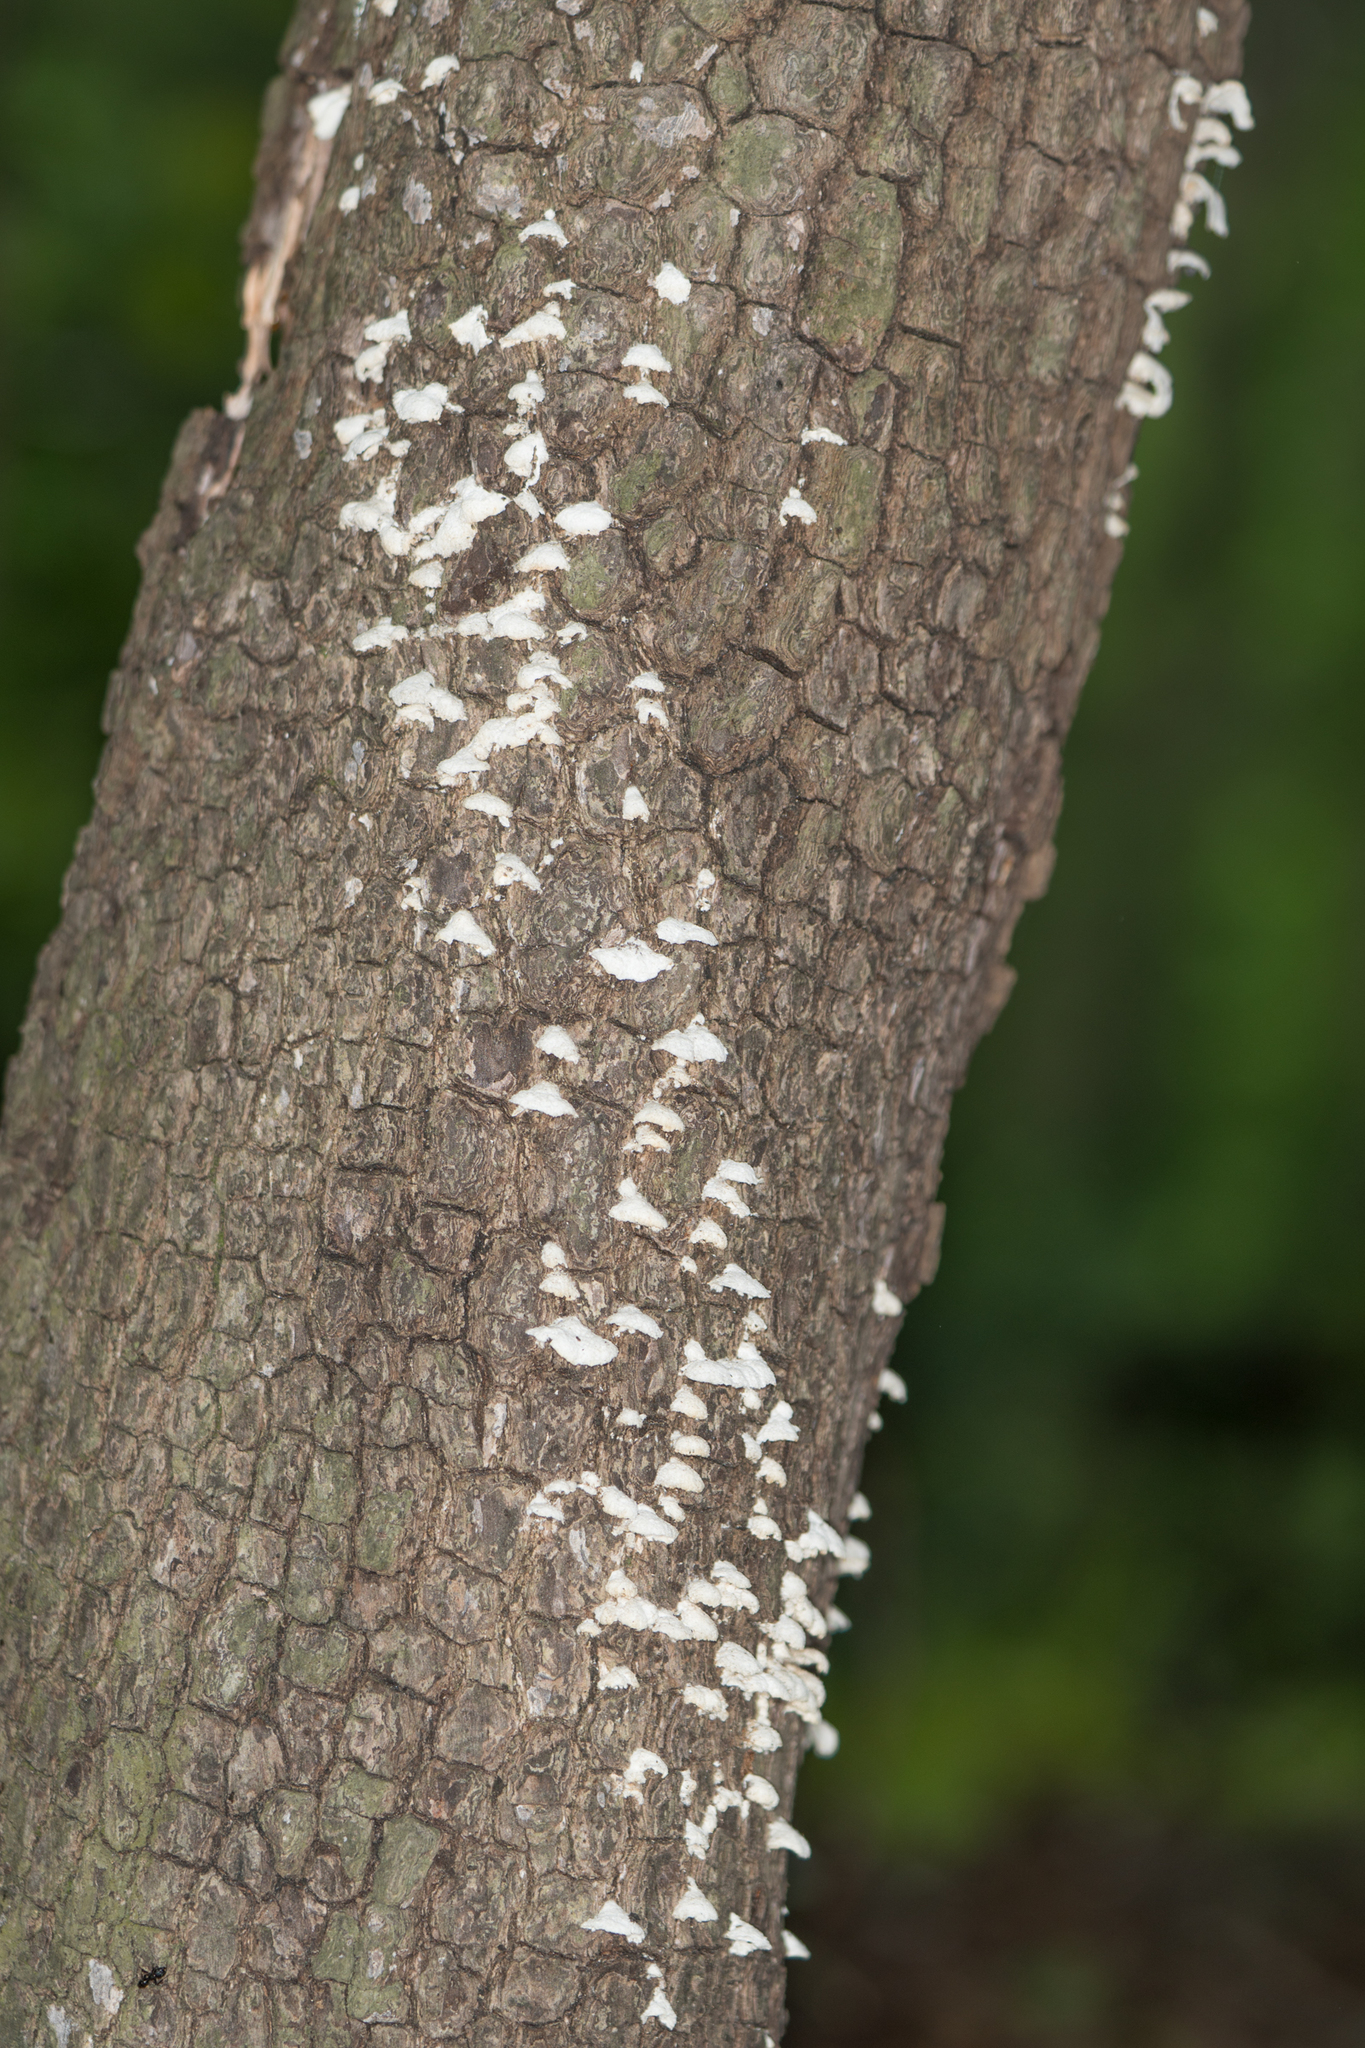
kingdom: Fungi
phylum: Basidiomycota
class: Agaricomycetes
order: Agaricales
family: Schizophyllaceae
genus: Schizophyllum
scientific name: Schizophyllum commune
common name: Common porecrust
